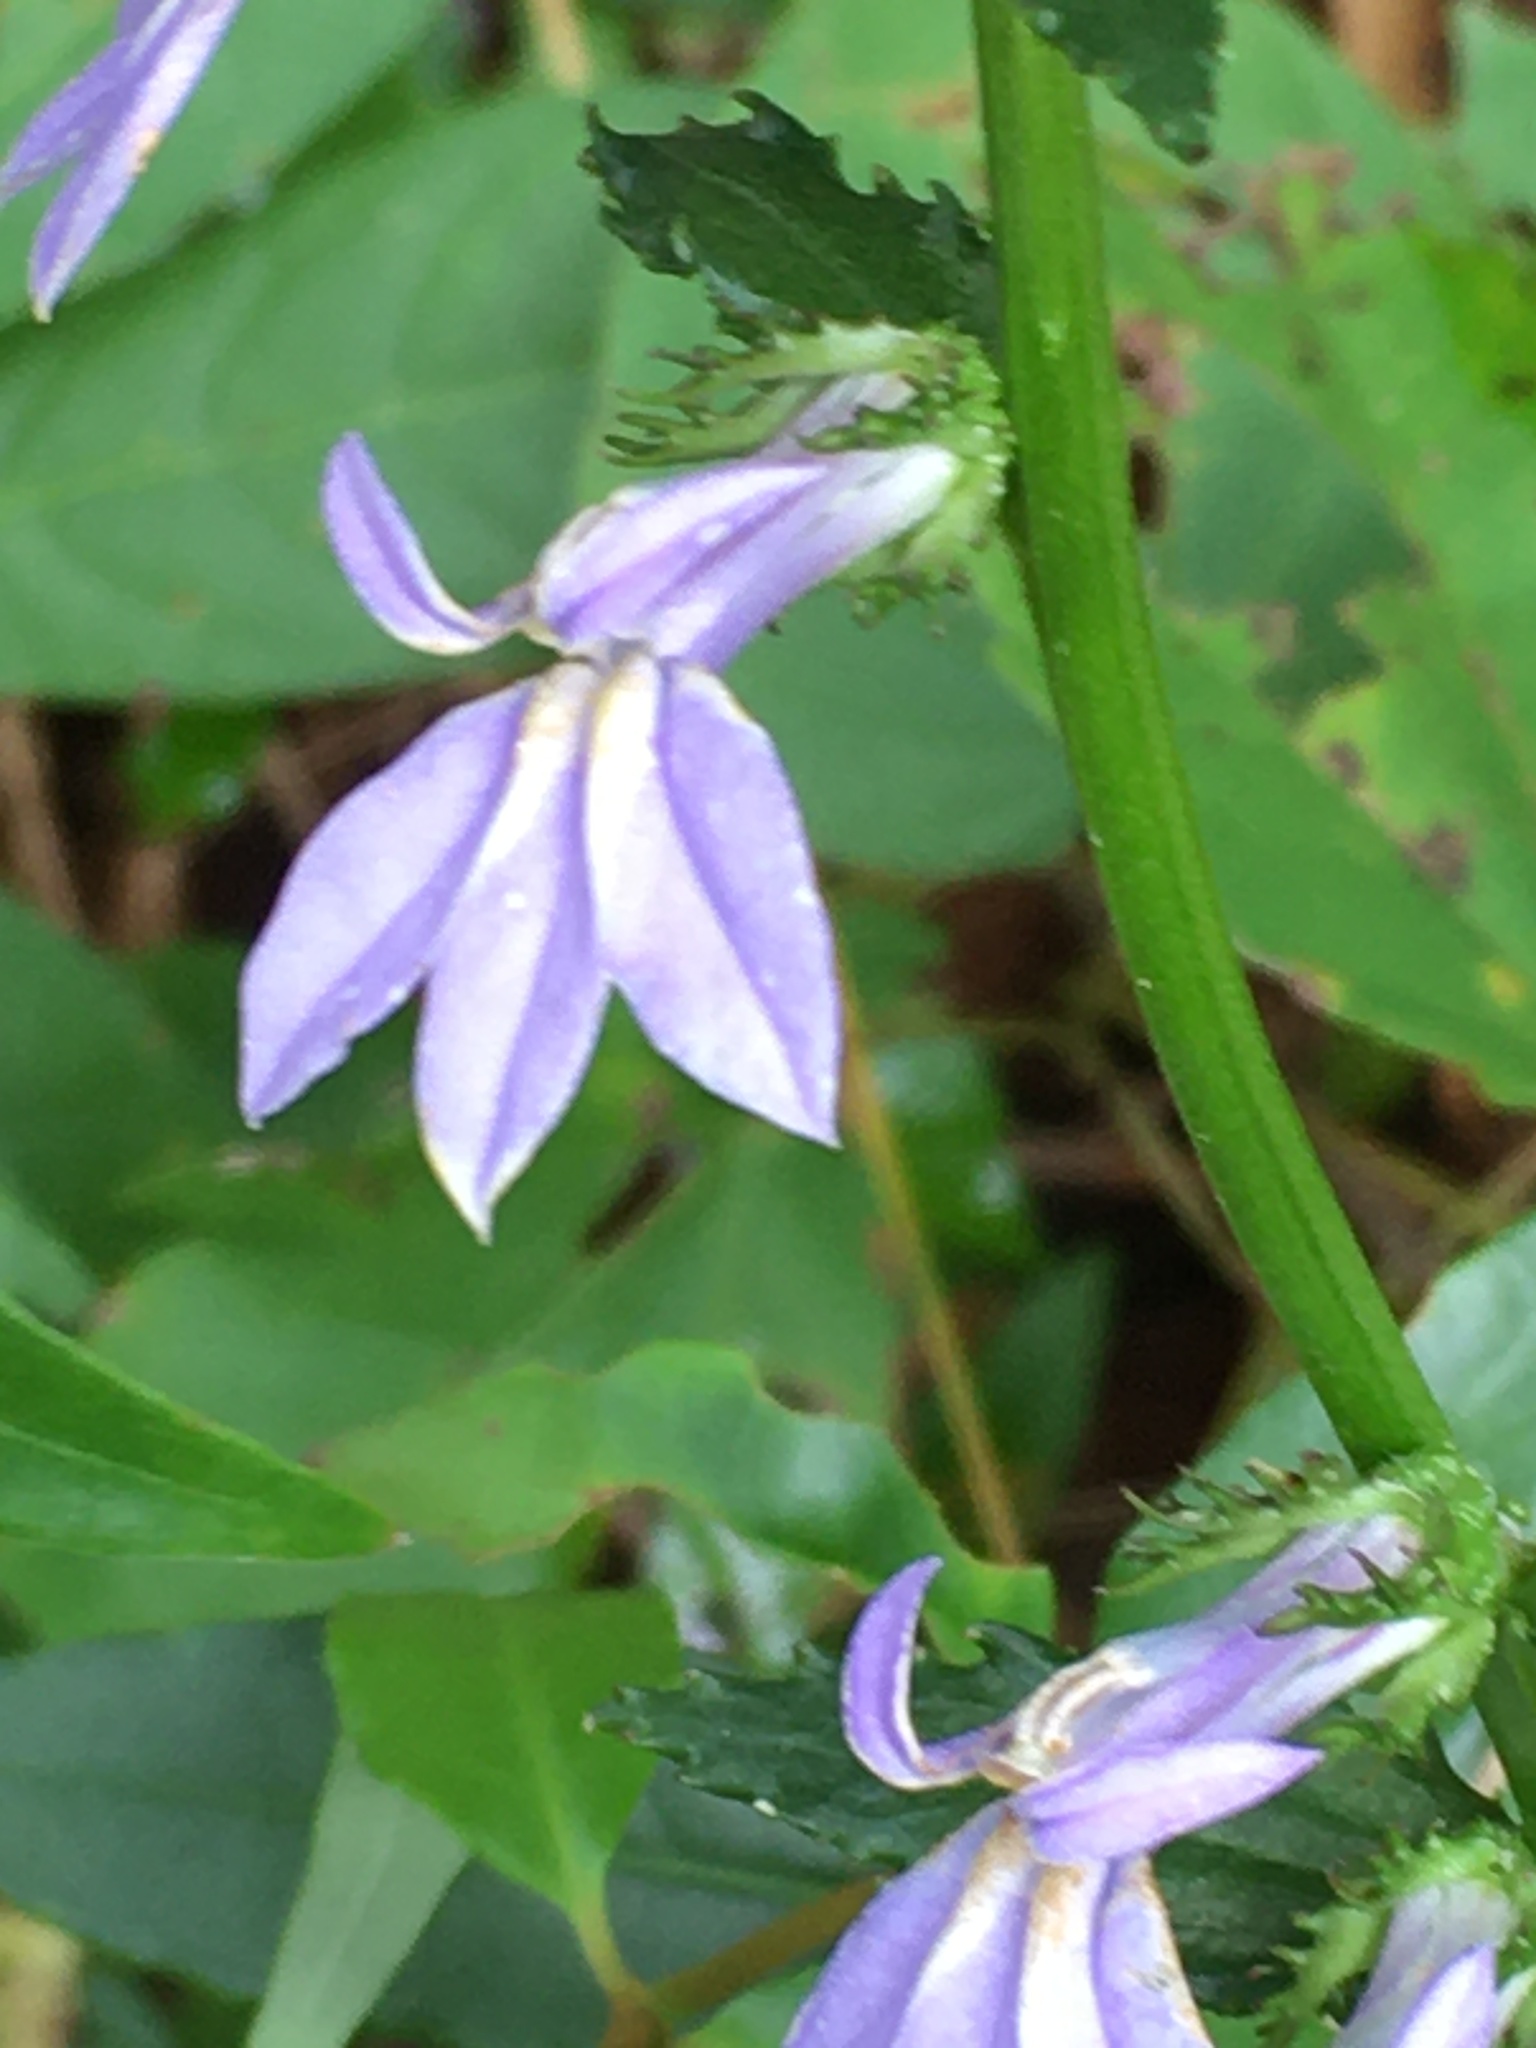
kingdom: Plantae
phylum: Tracheophyta
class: Magnoliopsida
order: Asterales
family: Campanulaceae
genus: Lobelia
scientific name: Lobelia georgiana
